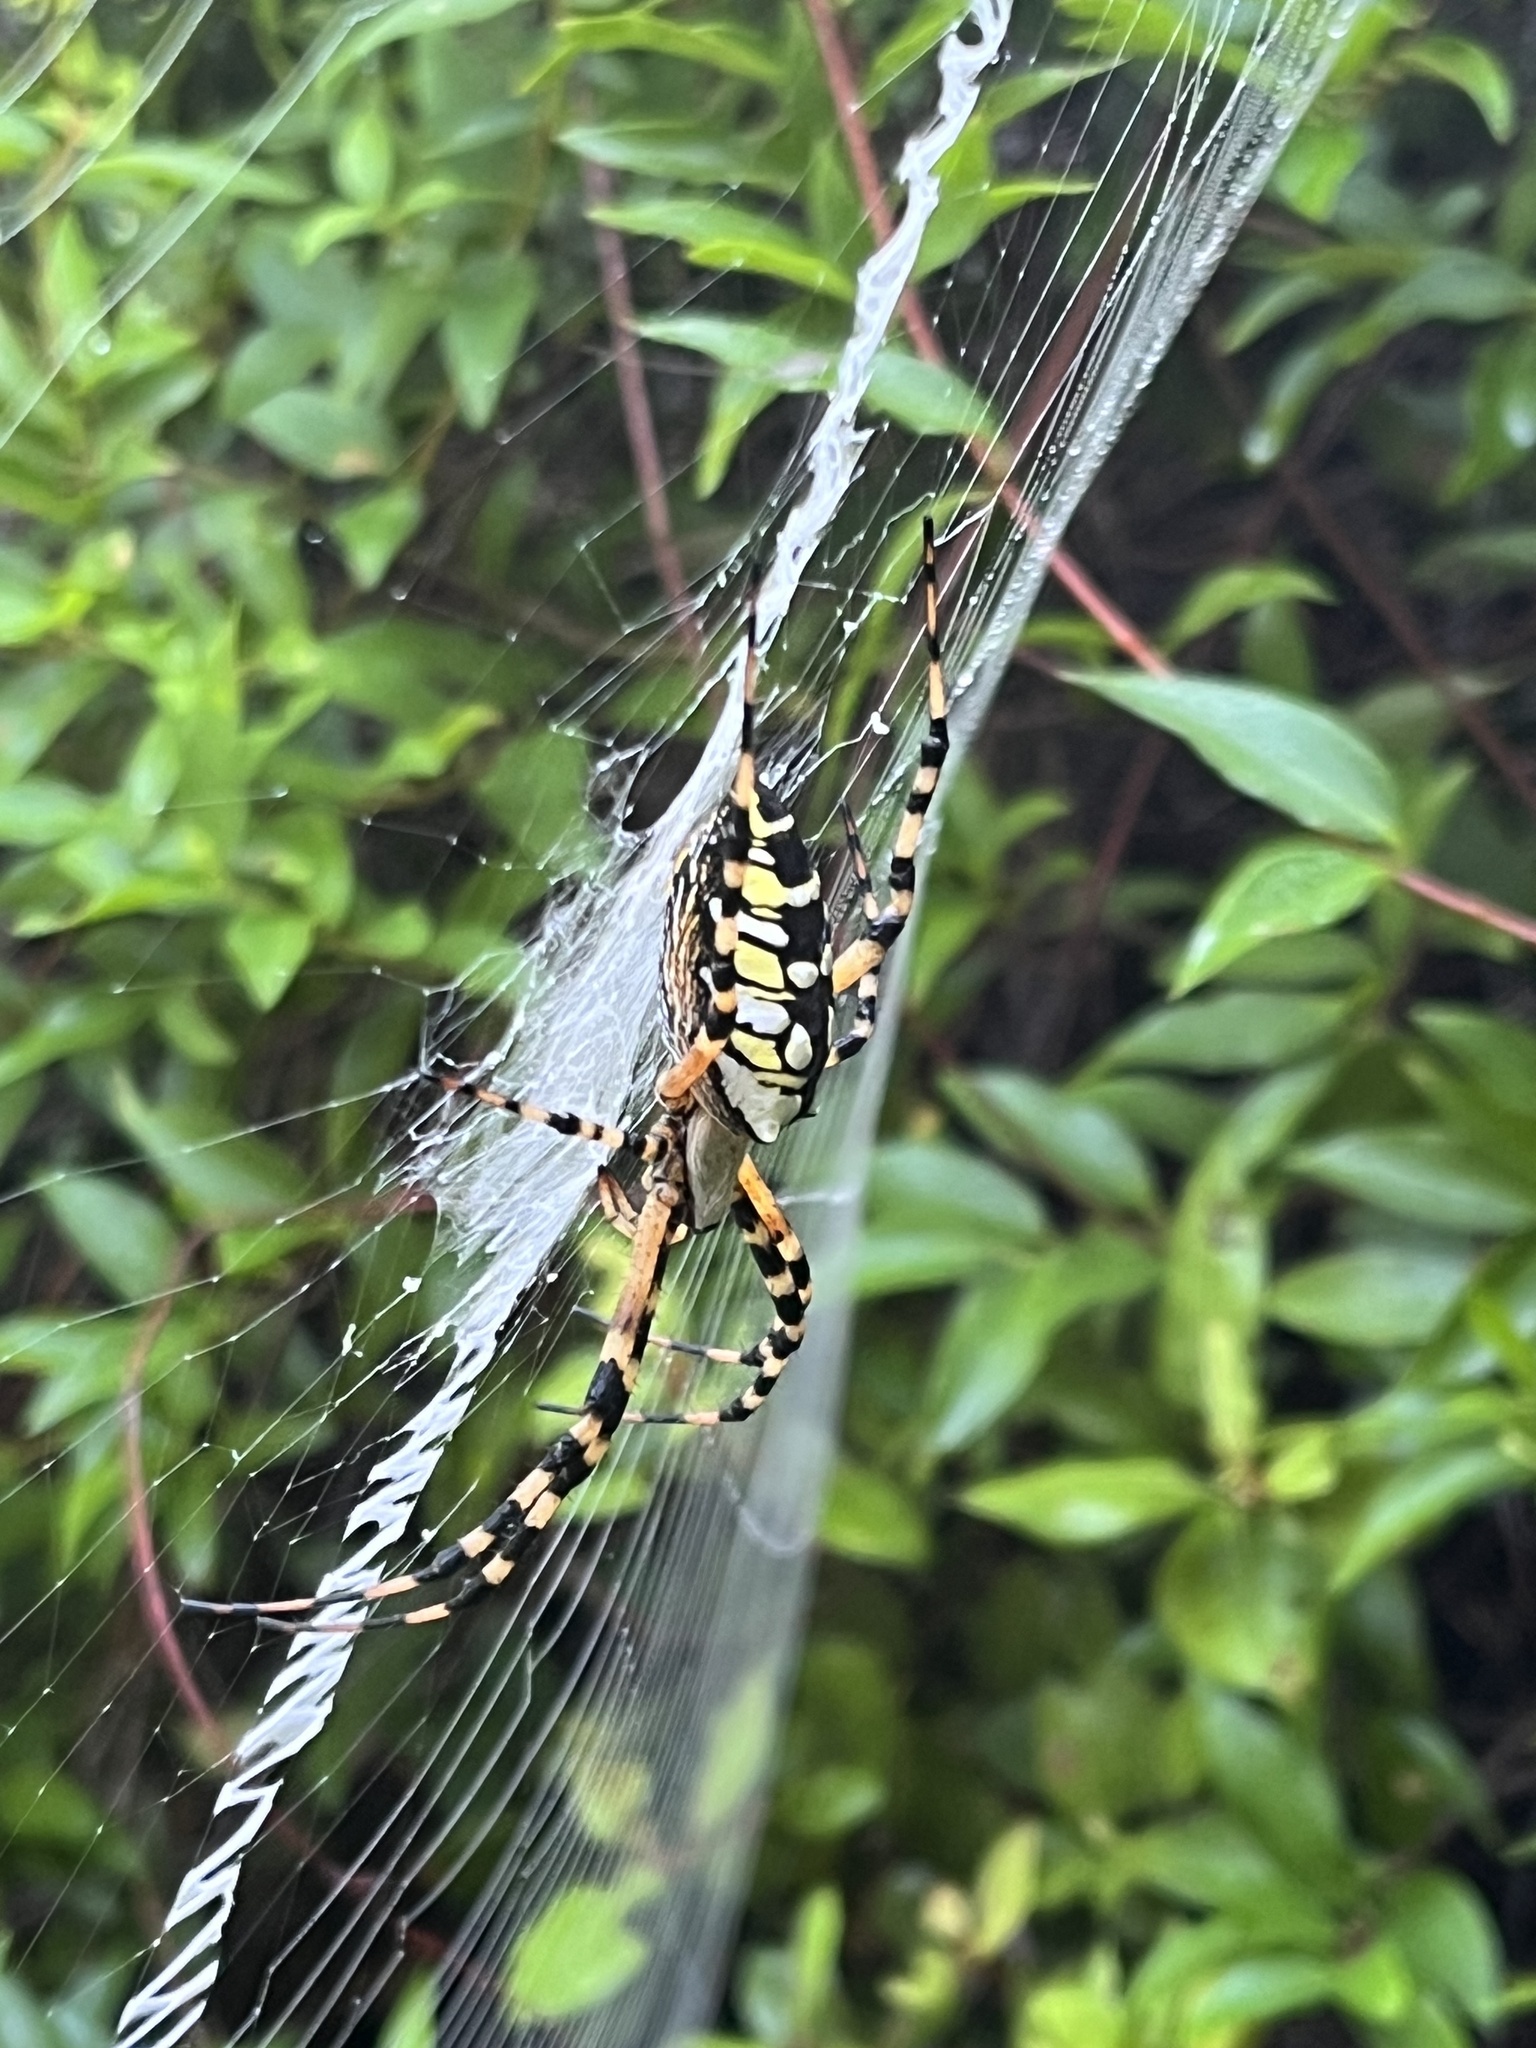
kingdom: Animalia
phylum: Arthropoda
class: Arachnida
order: Araneae
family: Araneidae
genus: Argiope
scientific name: Argiope aurantia
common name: Orb weavers
